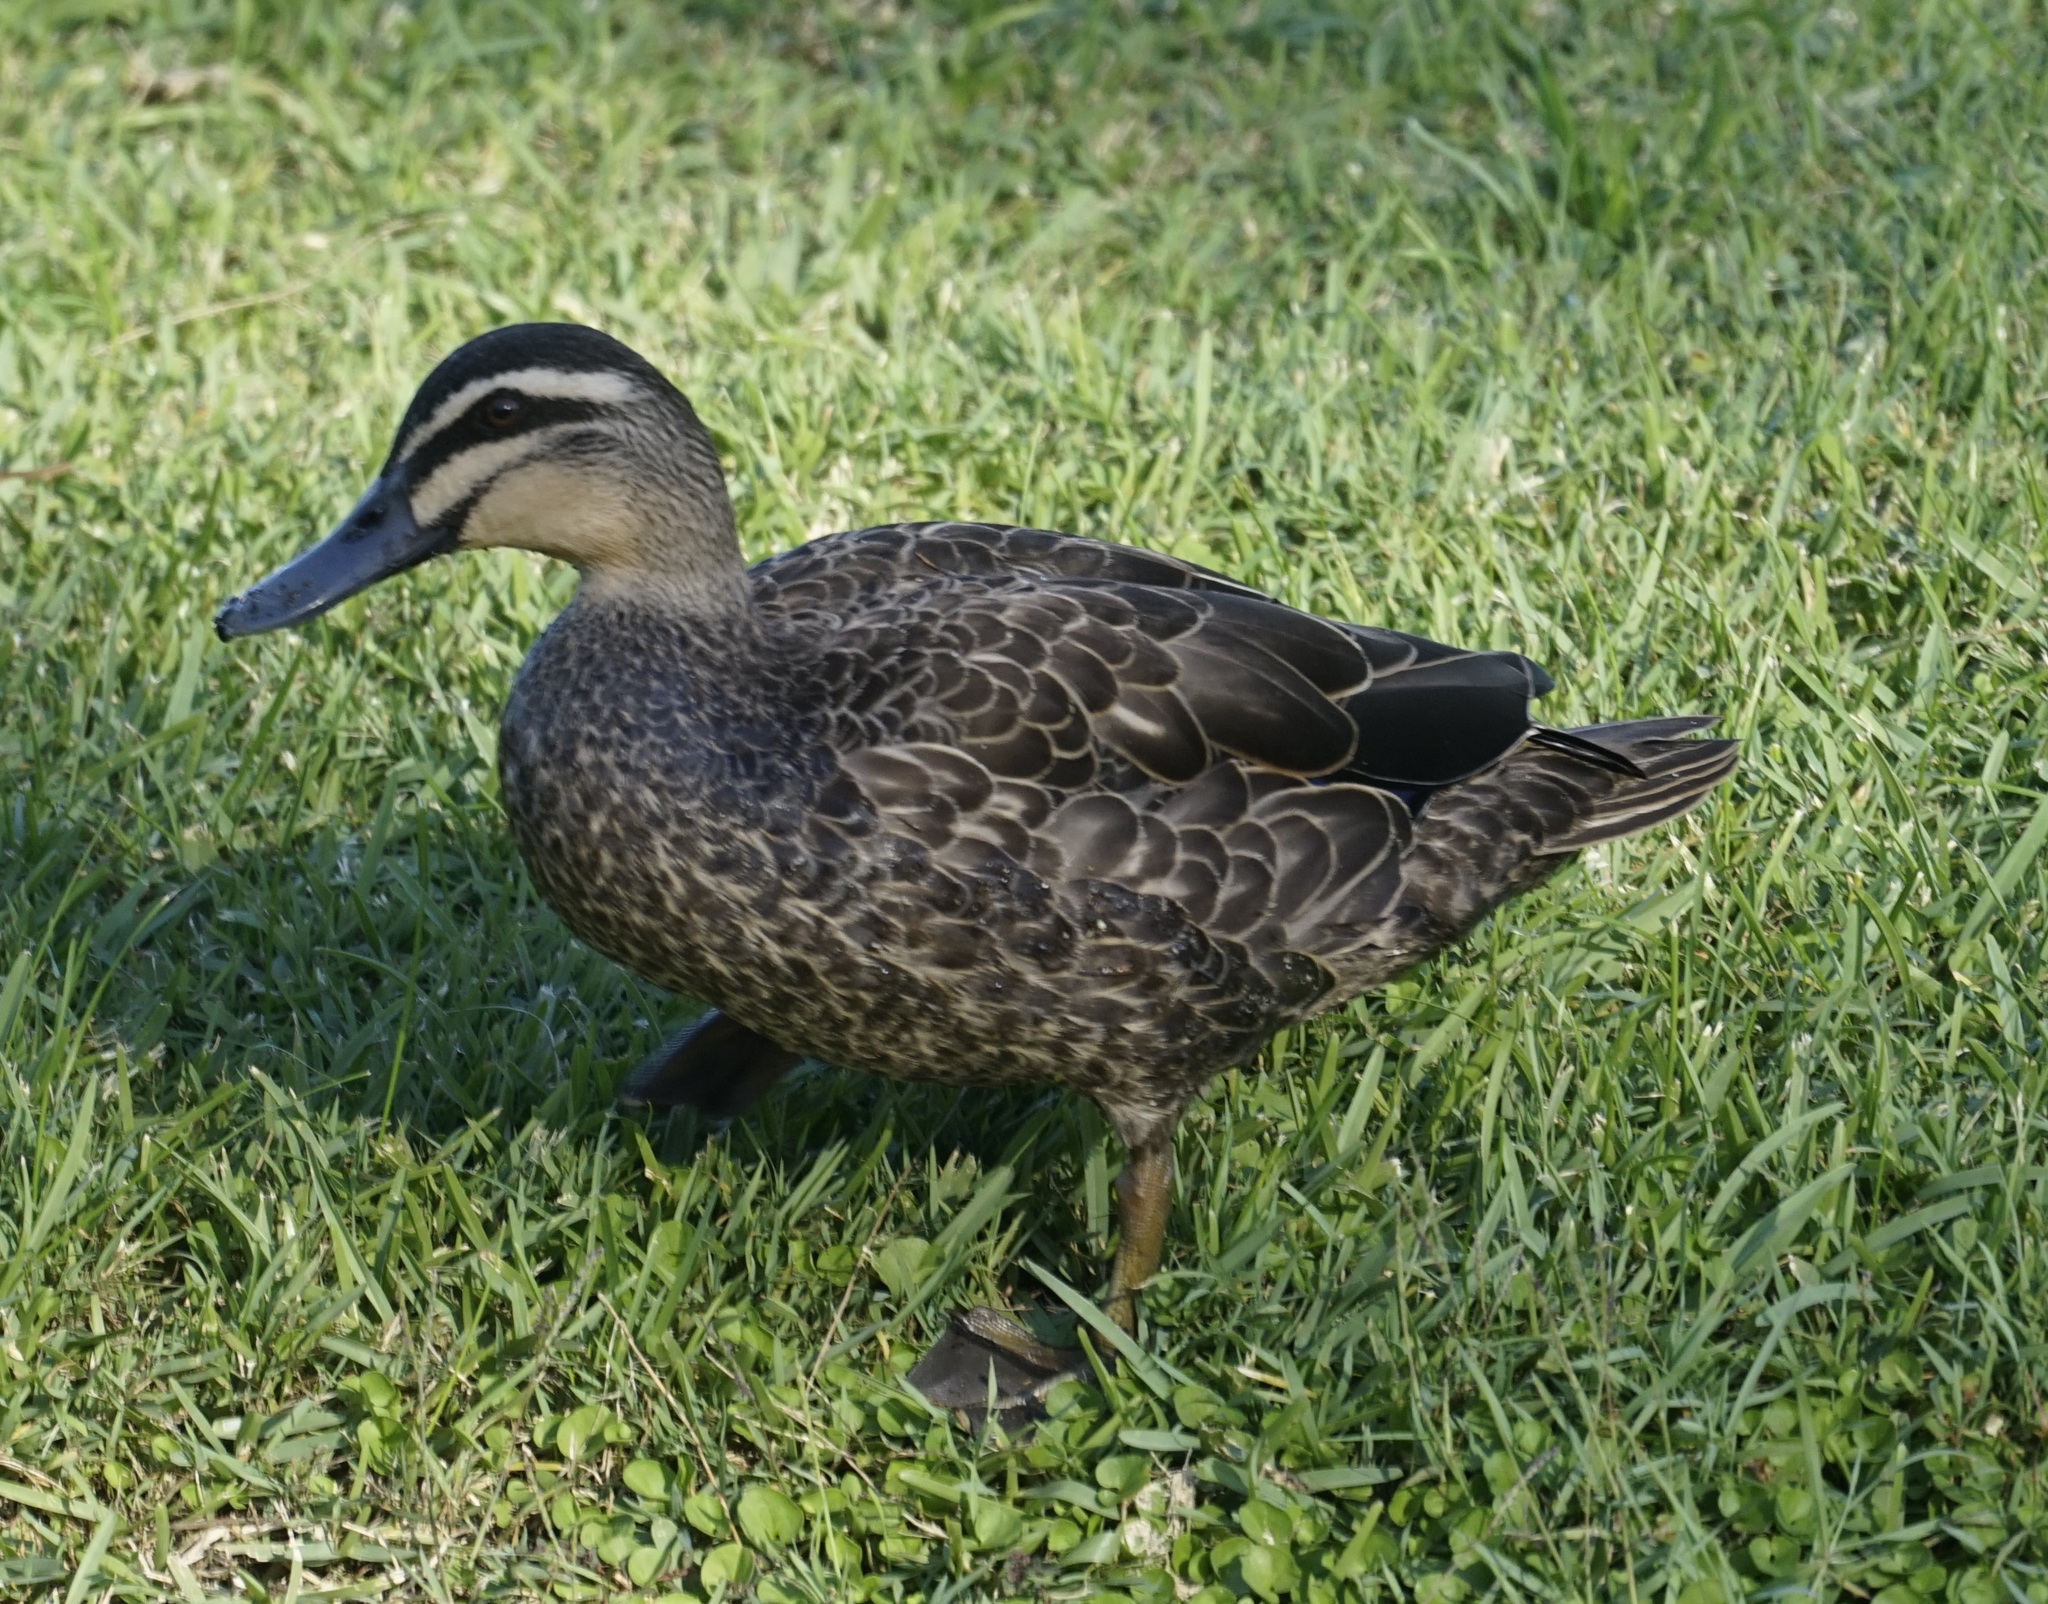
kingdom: Animalia
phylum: Chordata
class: Aves
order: Anseriformes
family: Anatidae
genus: Anas
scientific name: Anas superciliosa
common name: Pacific black duck
